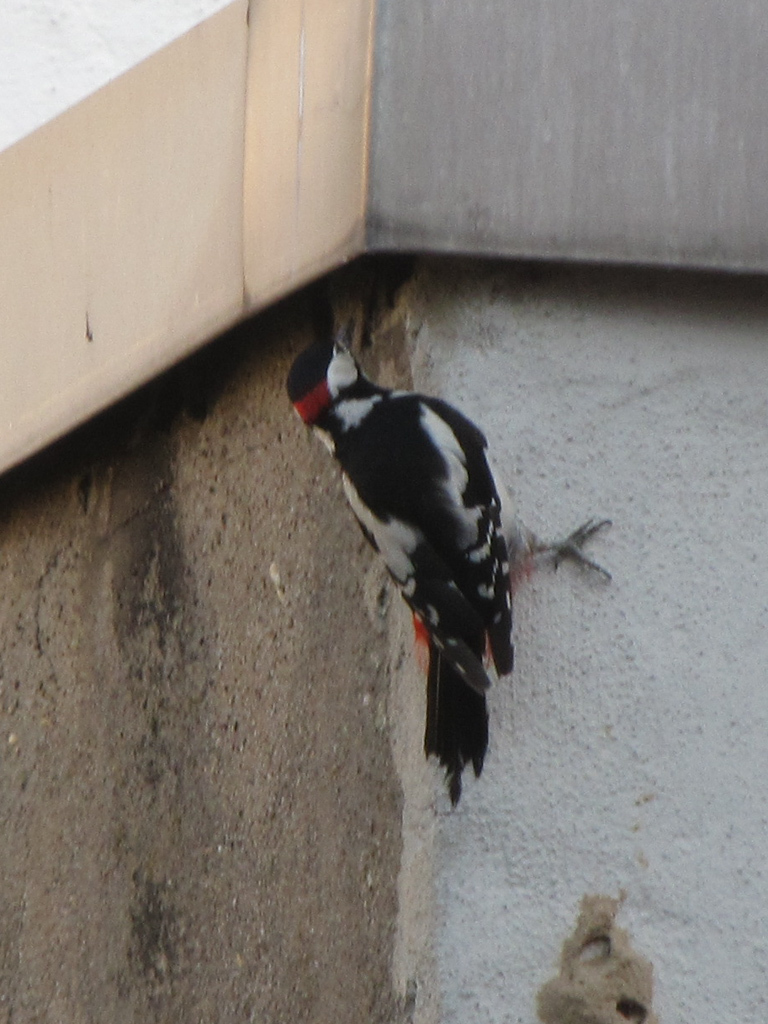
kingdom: Animalia
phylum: Chordata
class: Aves
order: Piciformes
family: Picidae
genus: Dendrocopos
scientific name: Dendrocopos major
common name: Great spotted woodpecker
